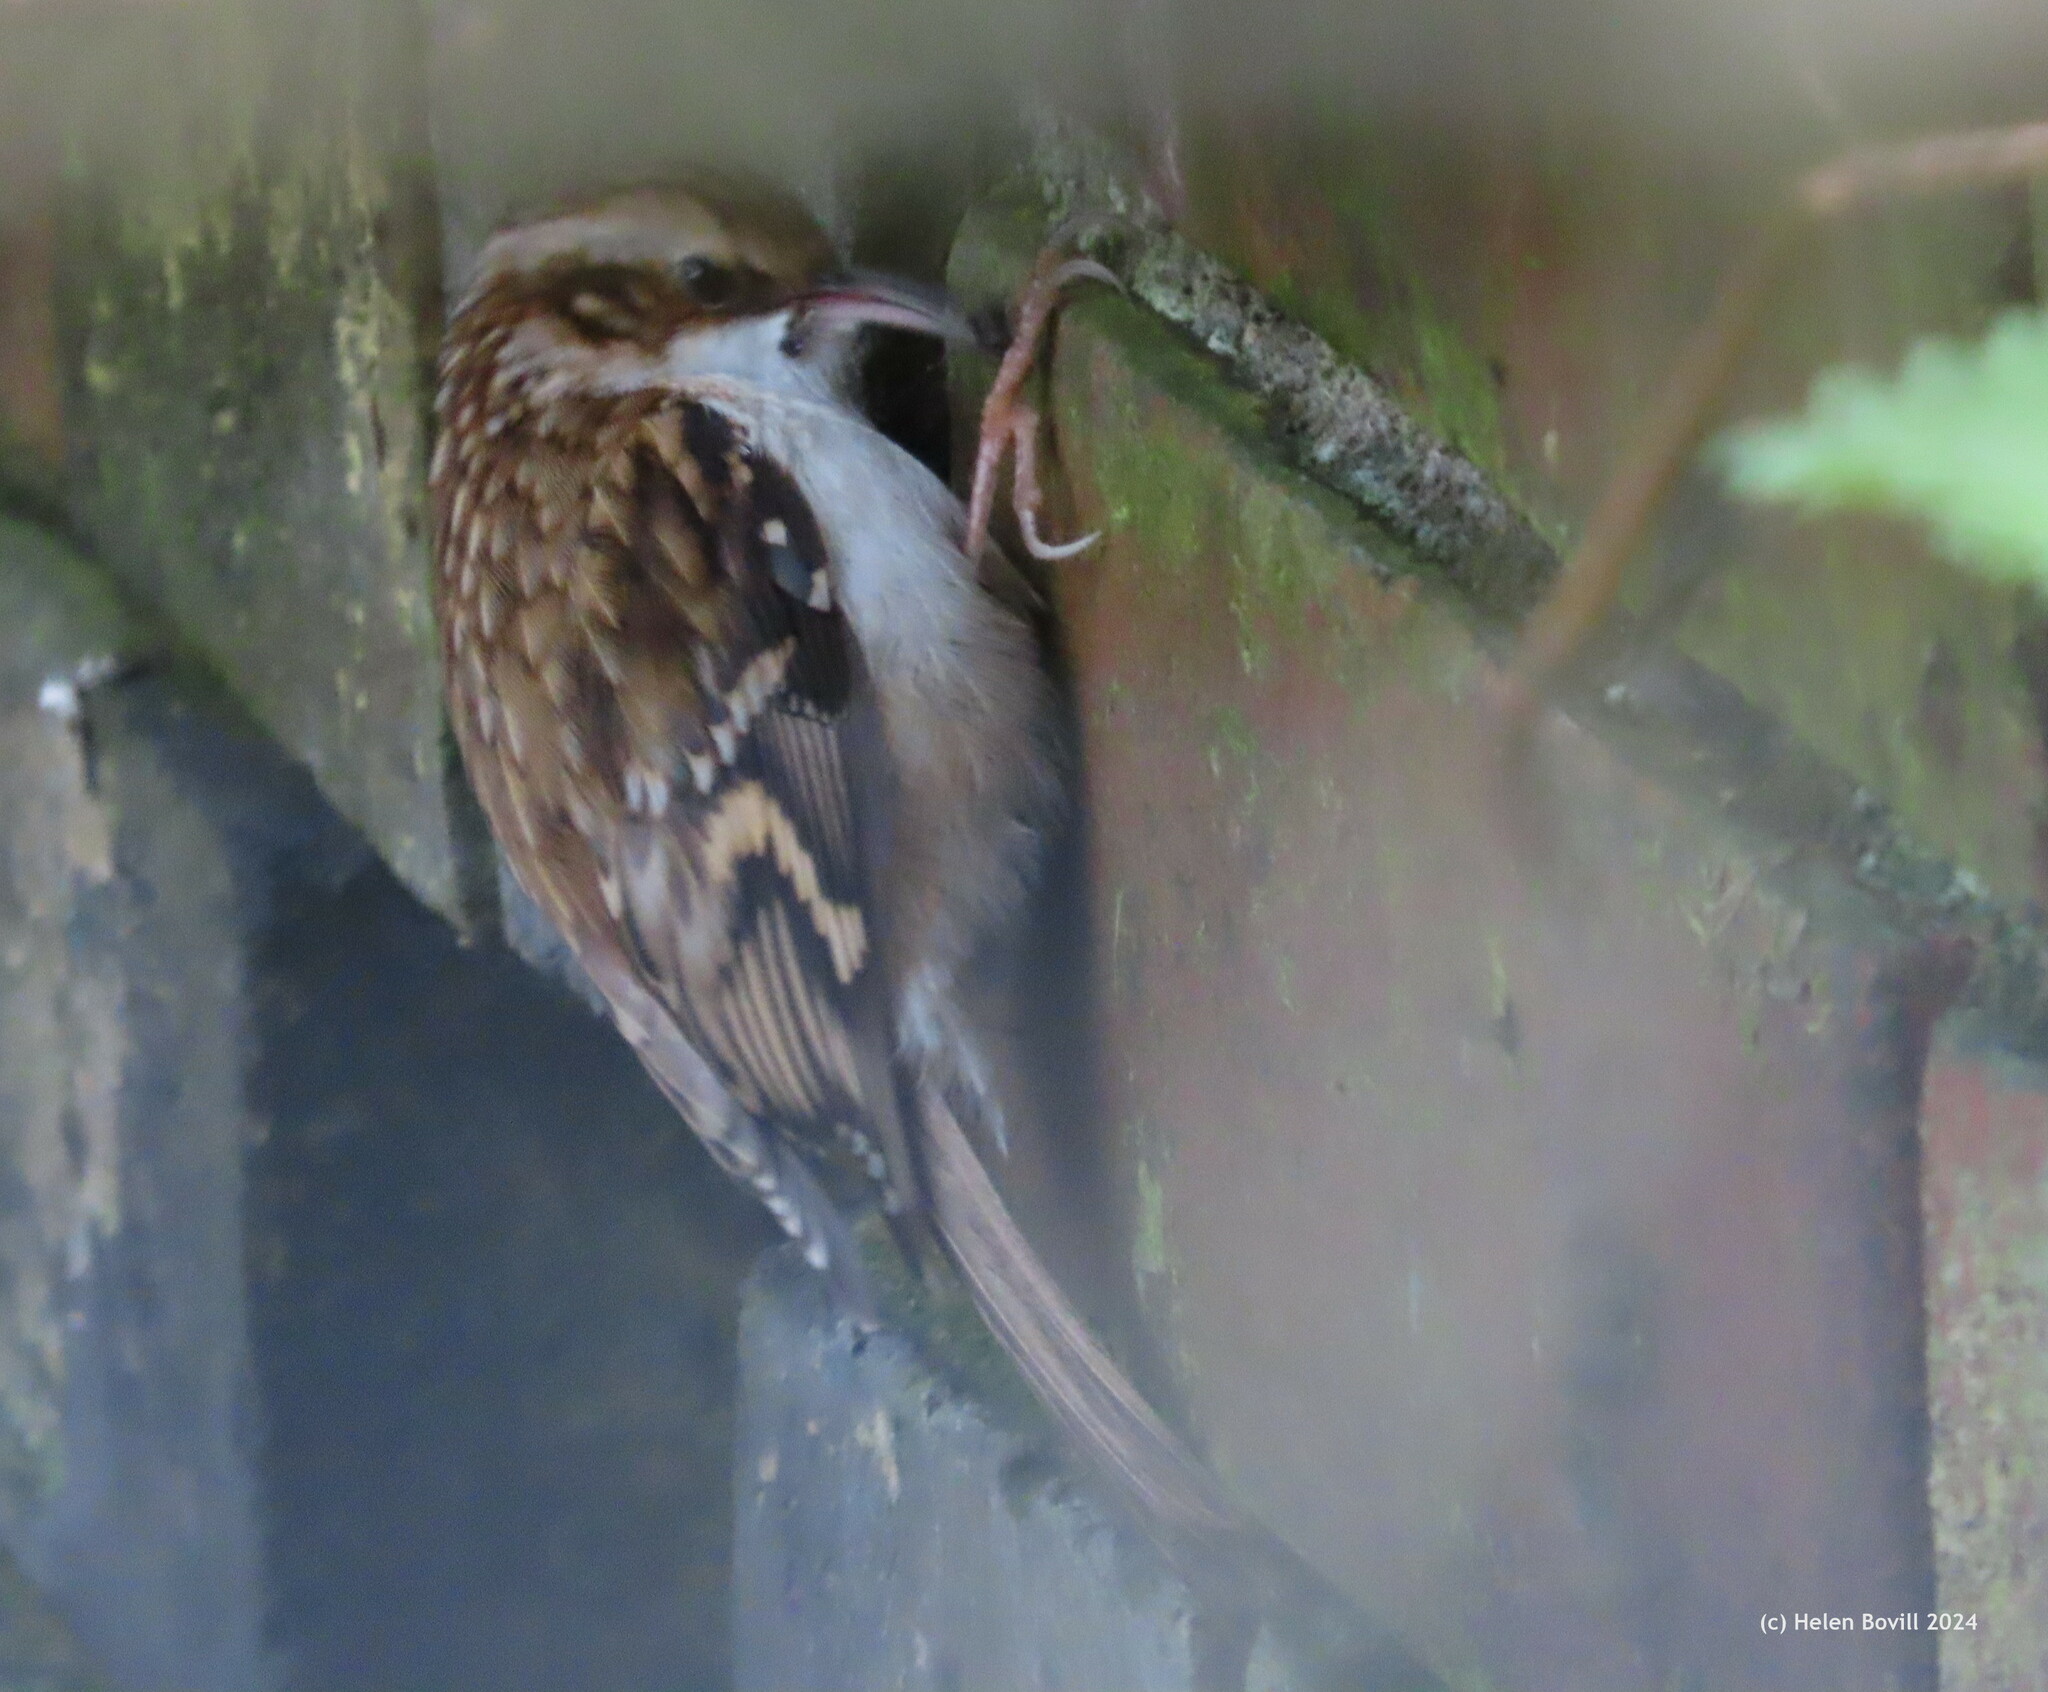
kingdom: Animalia
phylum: Chordata
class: Aves
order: Passeriformes
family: Certhiidae
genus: Certhia
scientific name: Certhia familiaris
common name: Eurasian treecreeper
